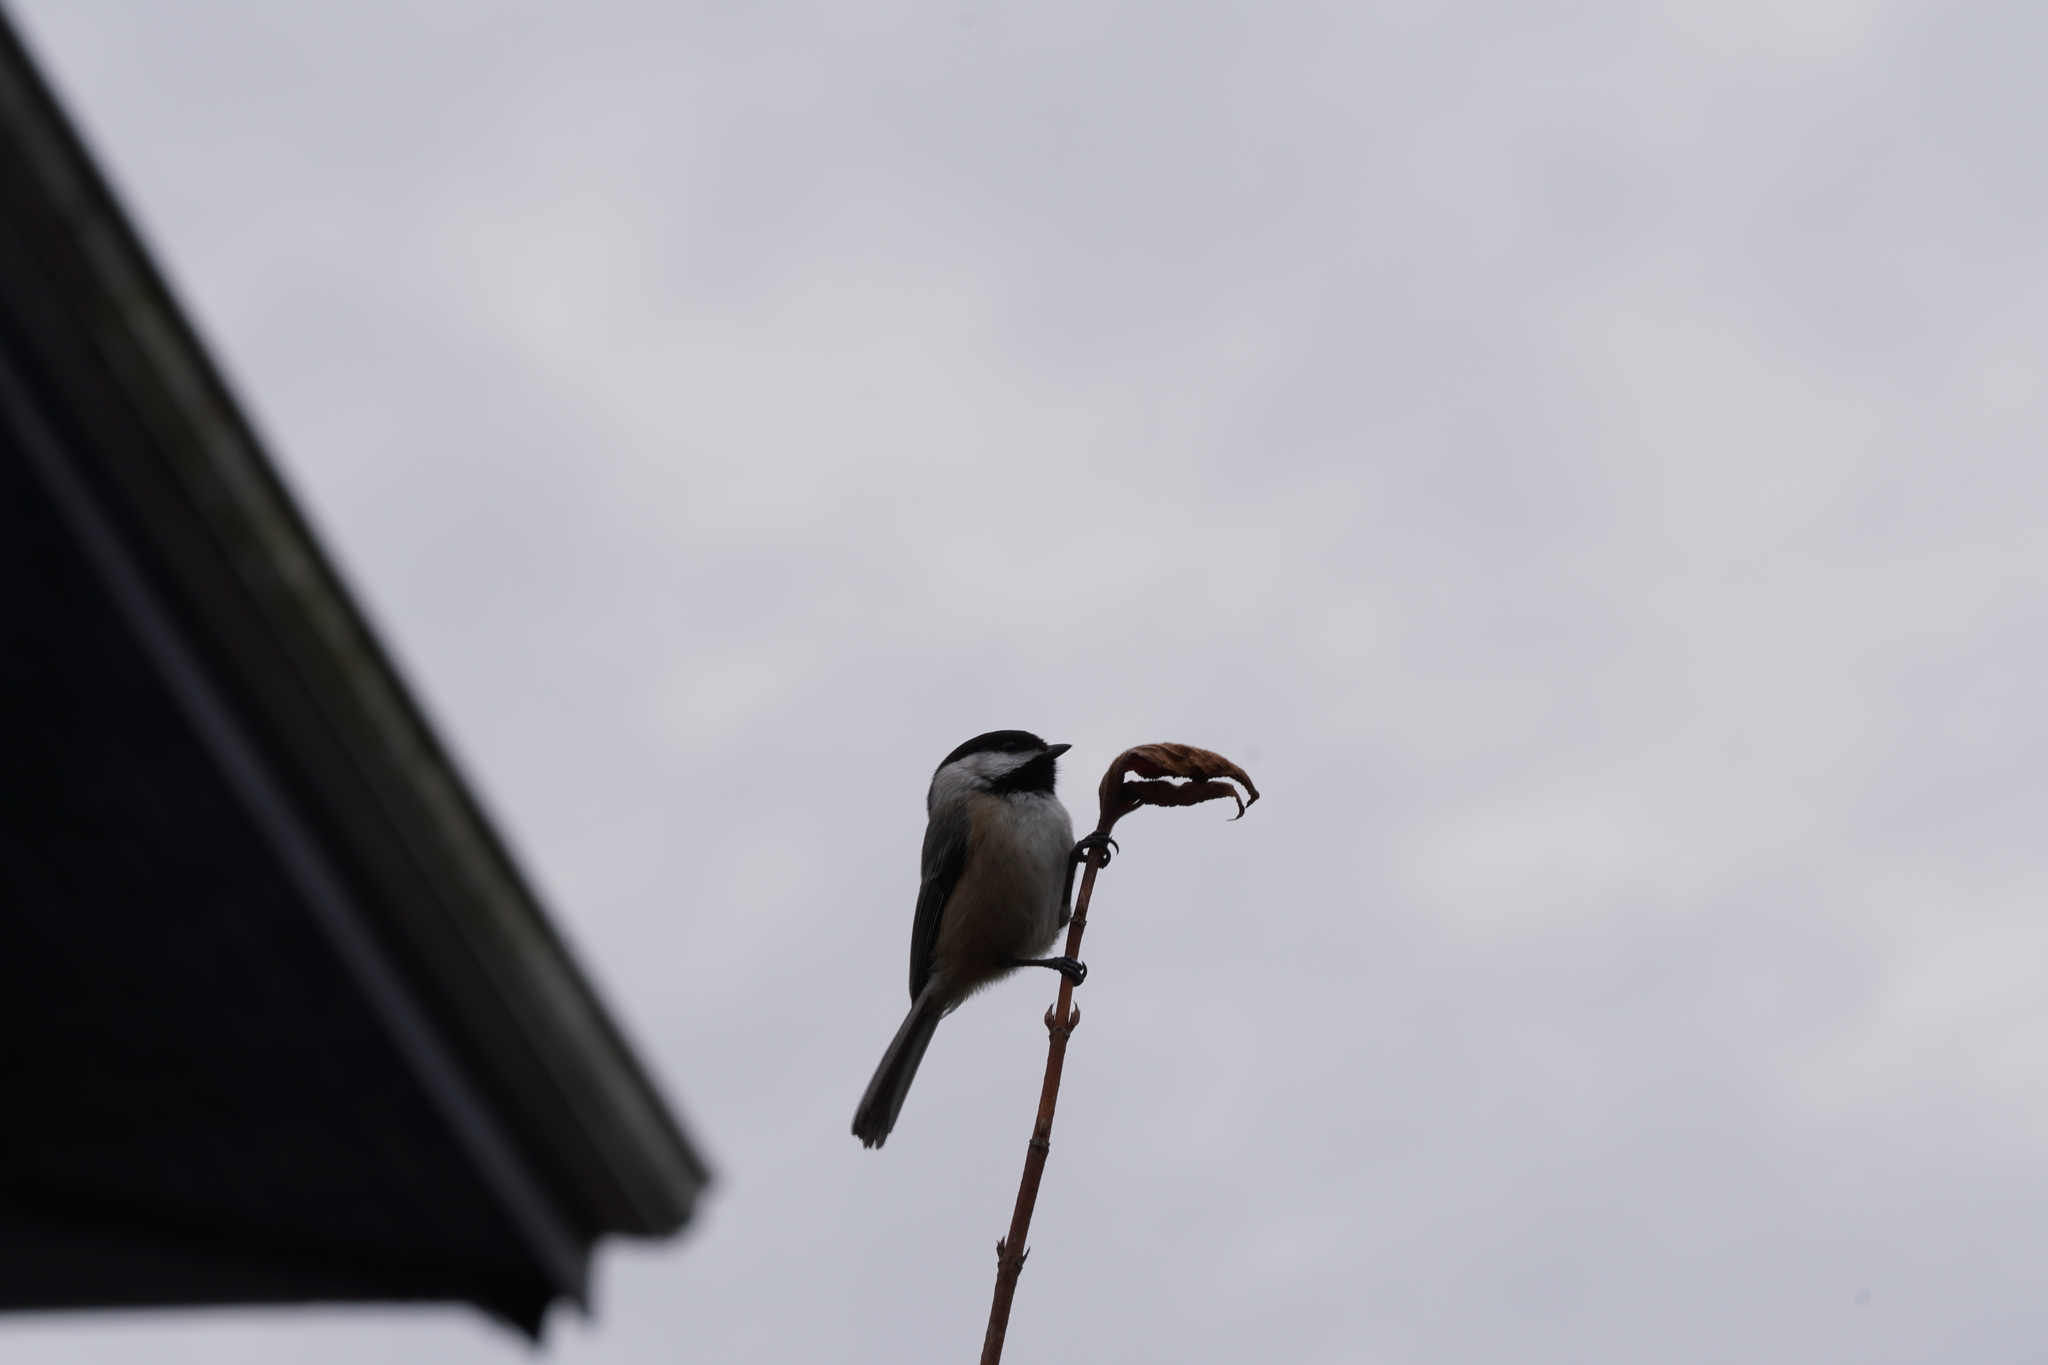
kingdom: Animalia
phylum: Chordata
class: Aves
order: Passeriformes
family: Paridae
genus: Poecile
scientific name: Poecile atricapillus
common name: Black-capped chickadee
